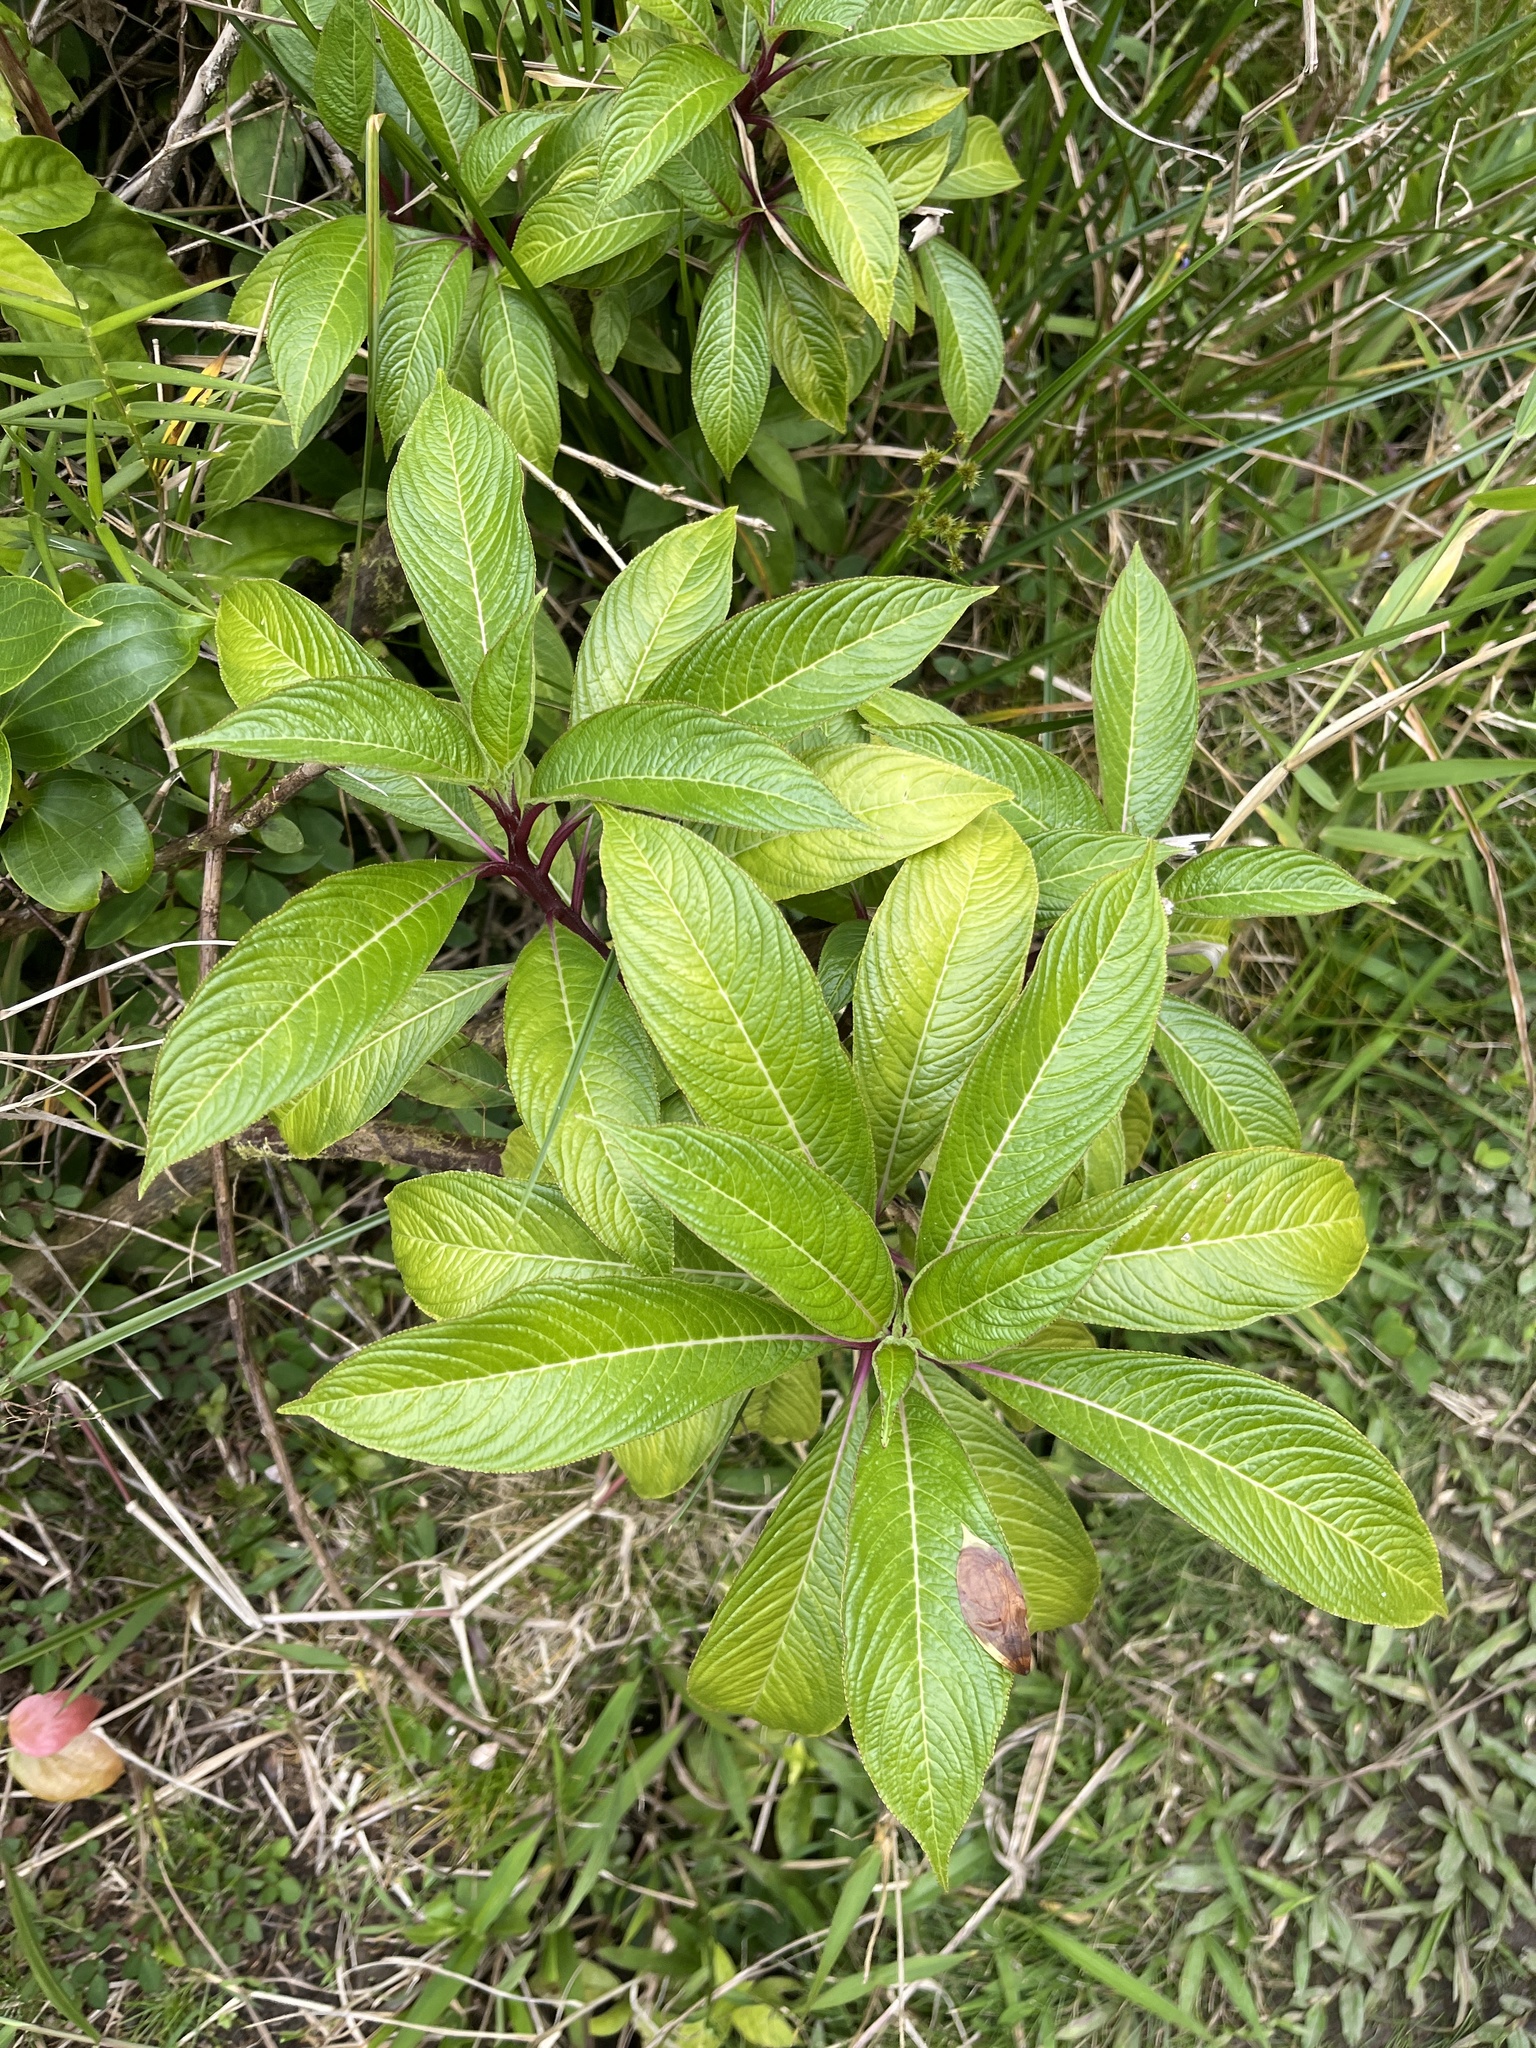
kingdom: Plantae
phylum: Tracheophyta
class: Magnoliopsida
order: Asterales
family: Campanulaceae
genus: Lobelia
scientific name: Lobelia portoricensis
